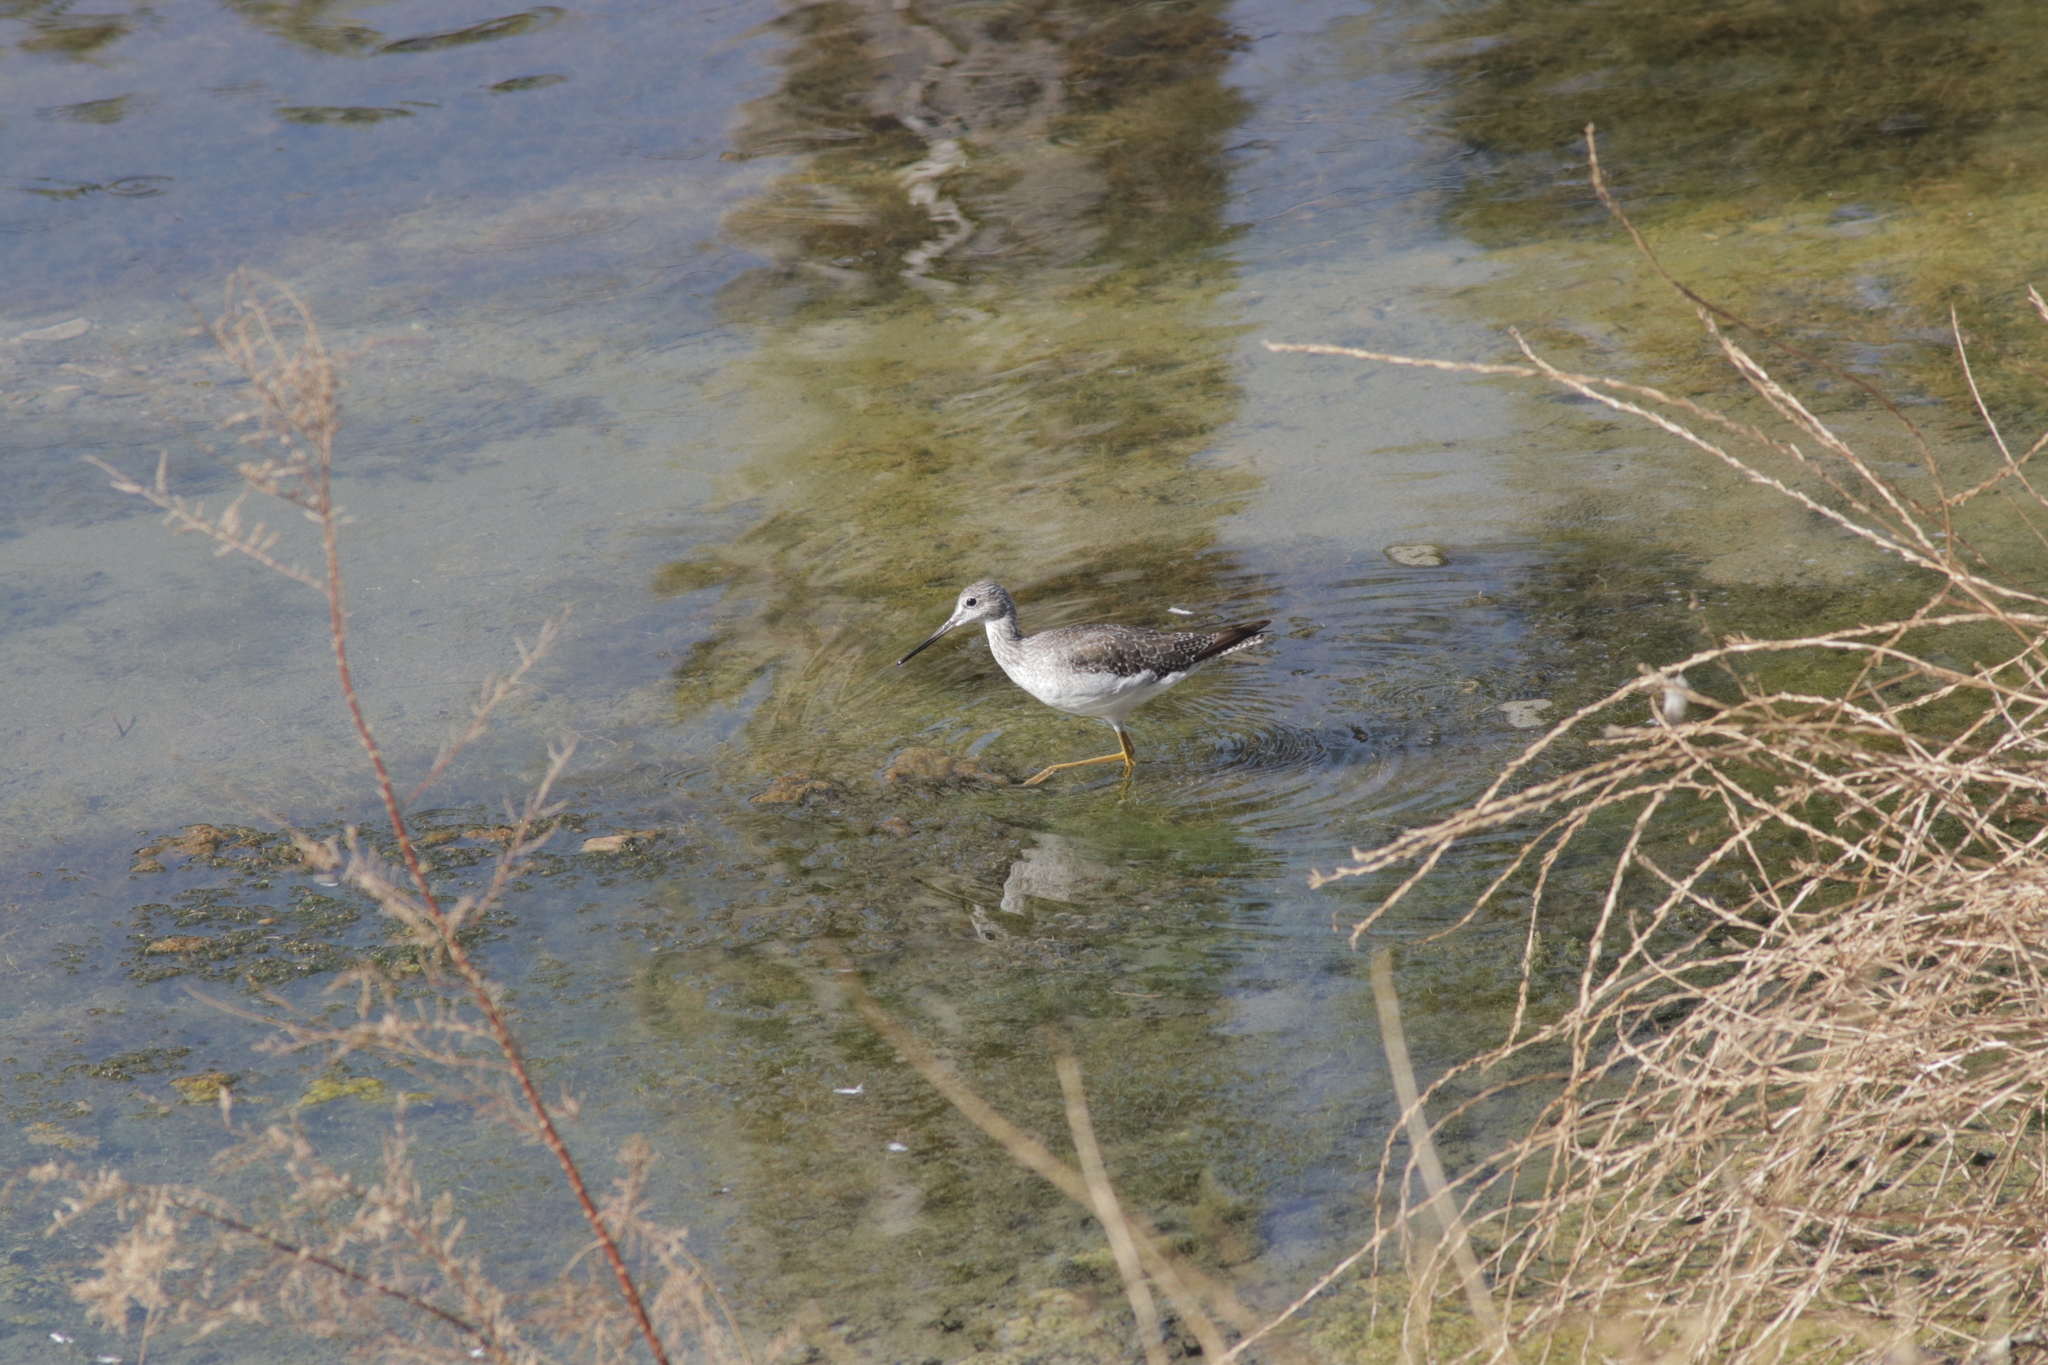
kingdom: Animalia
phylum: Chordata
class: Aves
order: Charadriiformes
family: Scolopacidae
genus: Tringa
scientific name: Tringa melanoleuca
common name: Greater yellowlegs
